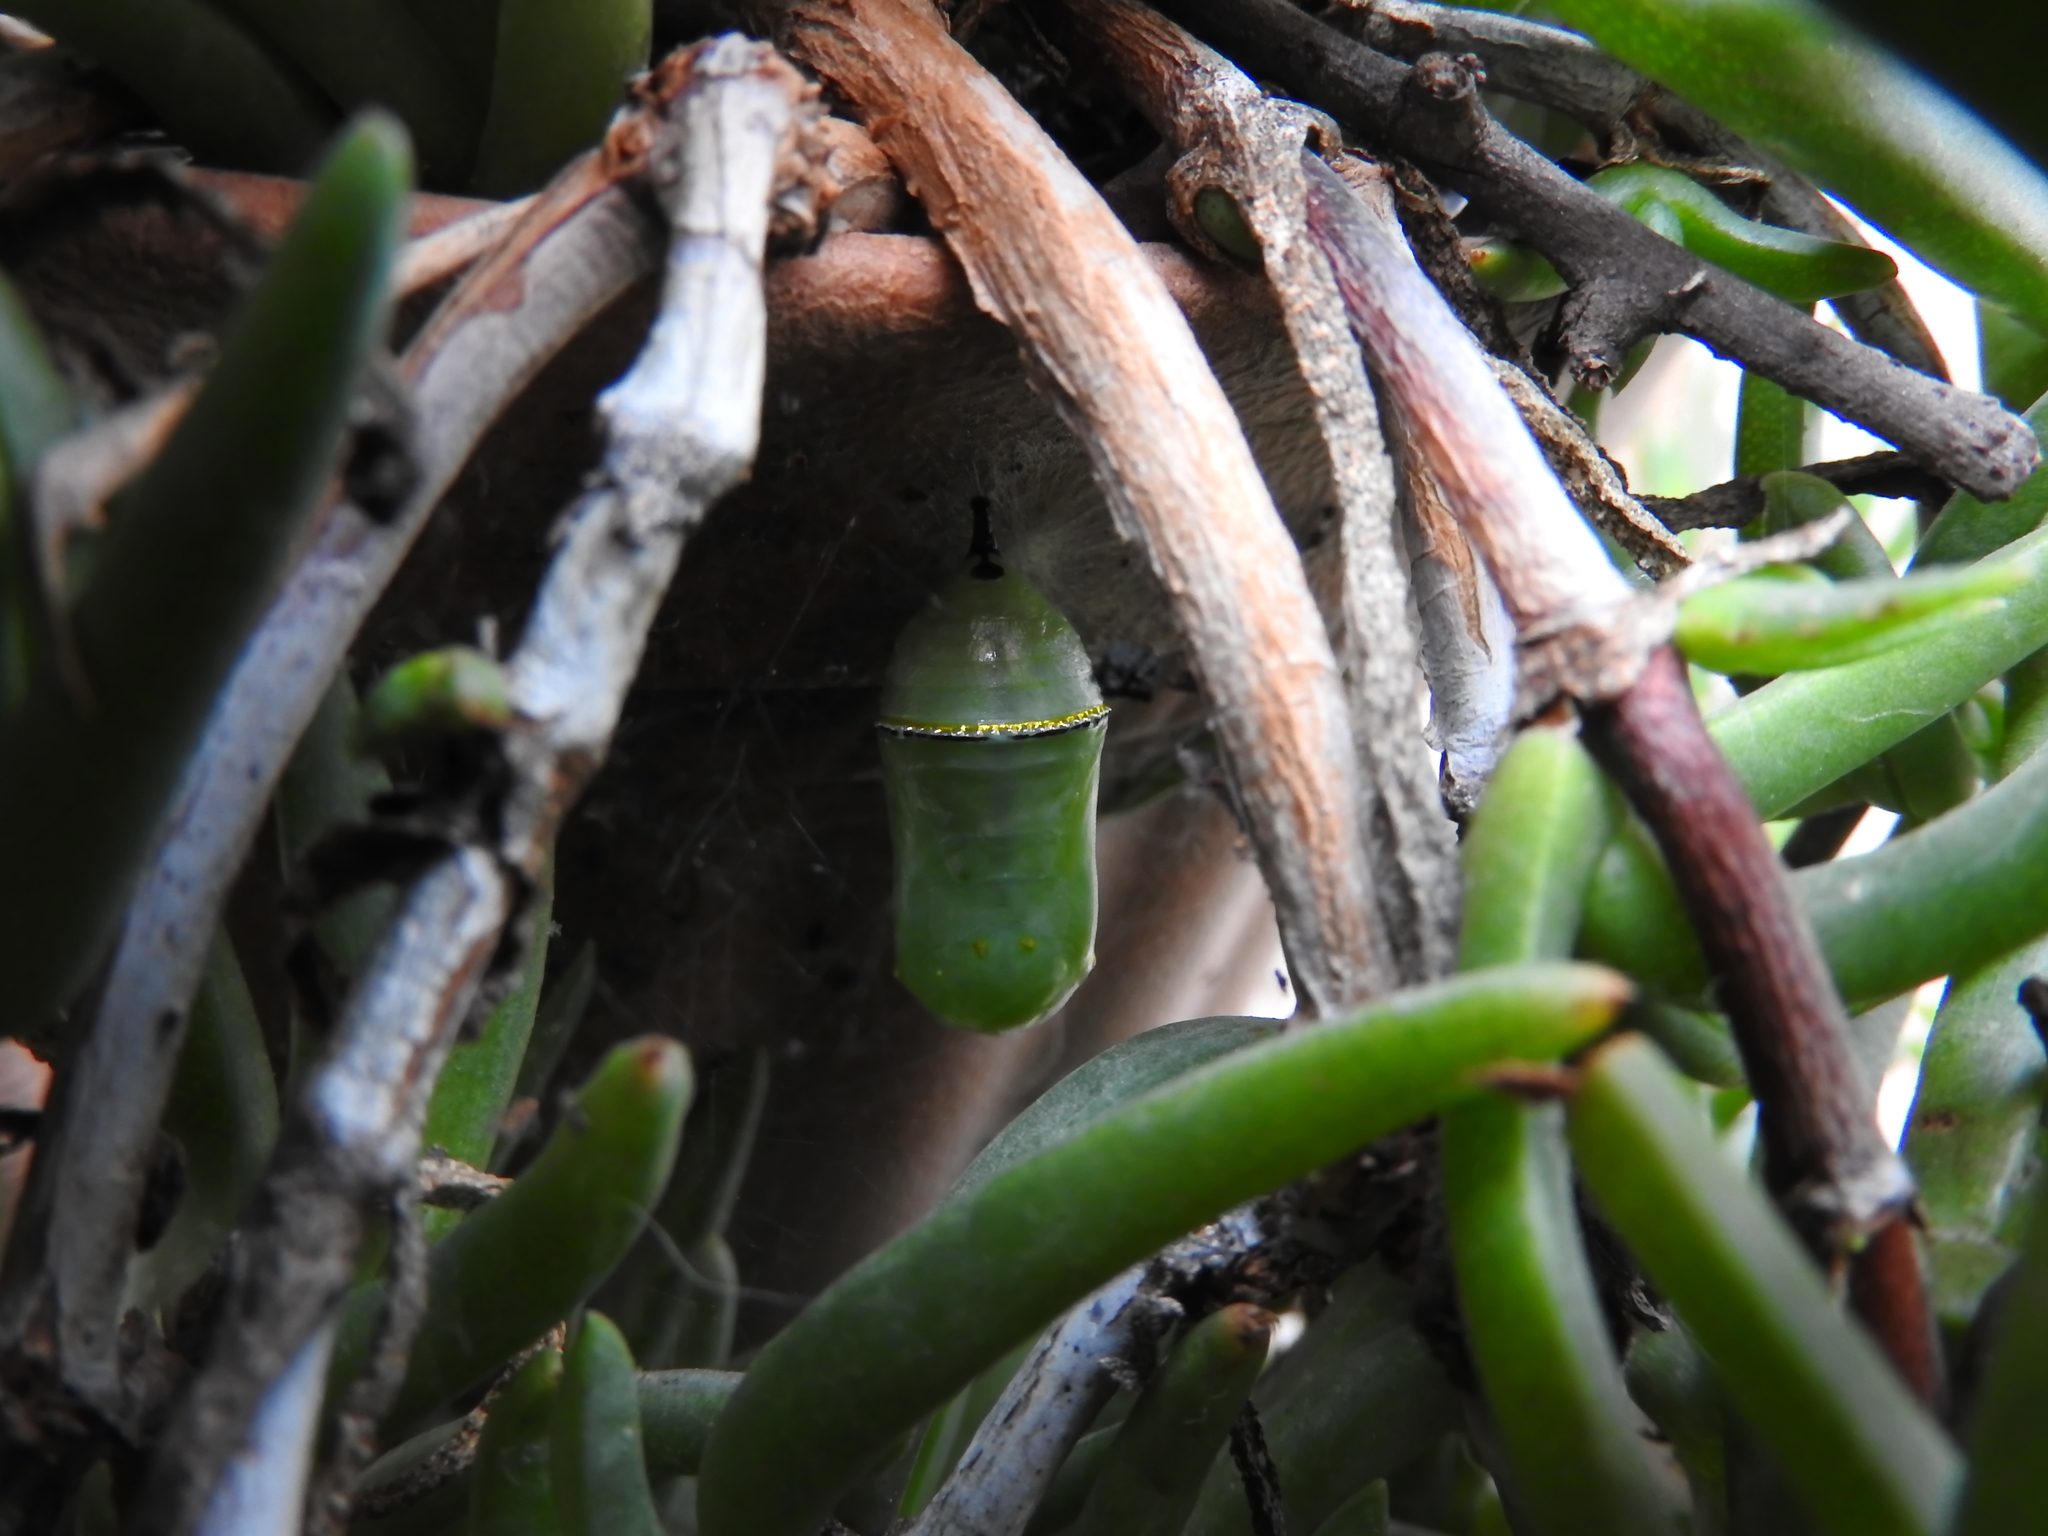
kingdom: Animalia
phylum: Arthropoda
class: Insecta
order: Lepidoptera
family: Nymphalidae
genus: Danaus
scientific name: Danaus plexippus
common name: Monarch
